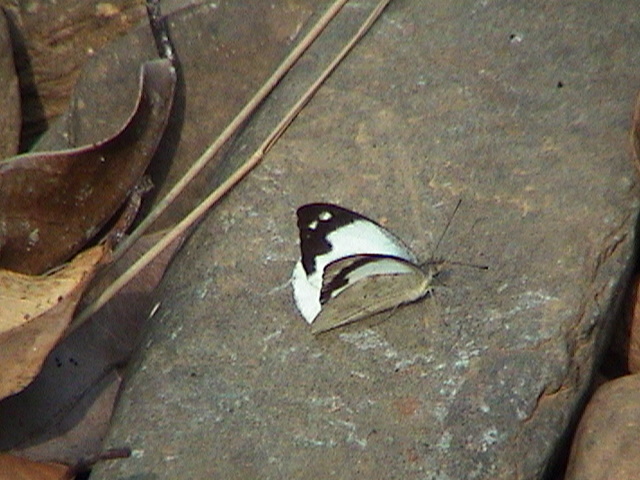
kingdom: Animalia
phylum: Arthropoda
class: Insecta
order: Lepidoptera
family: Pieridae
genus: Appias
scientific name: Appias indra
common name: Plain puffin
